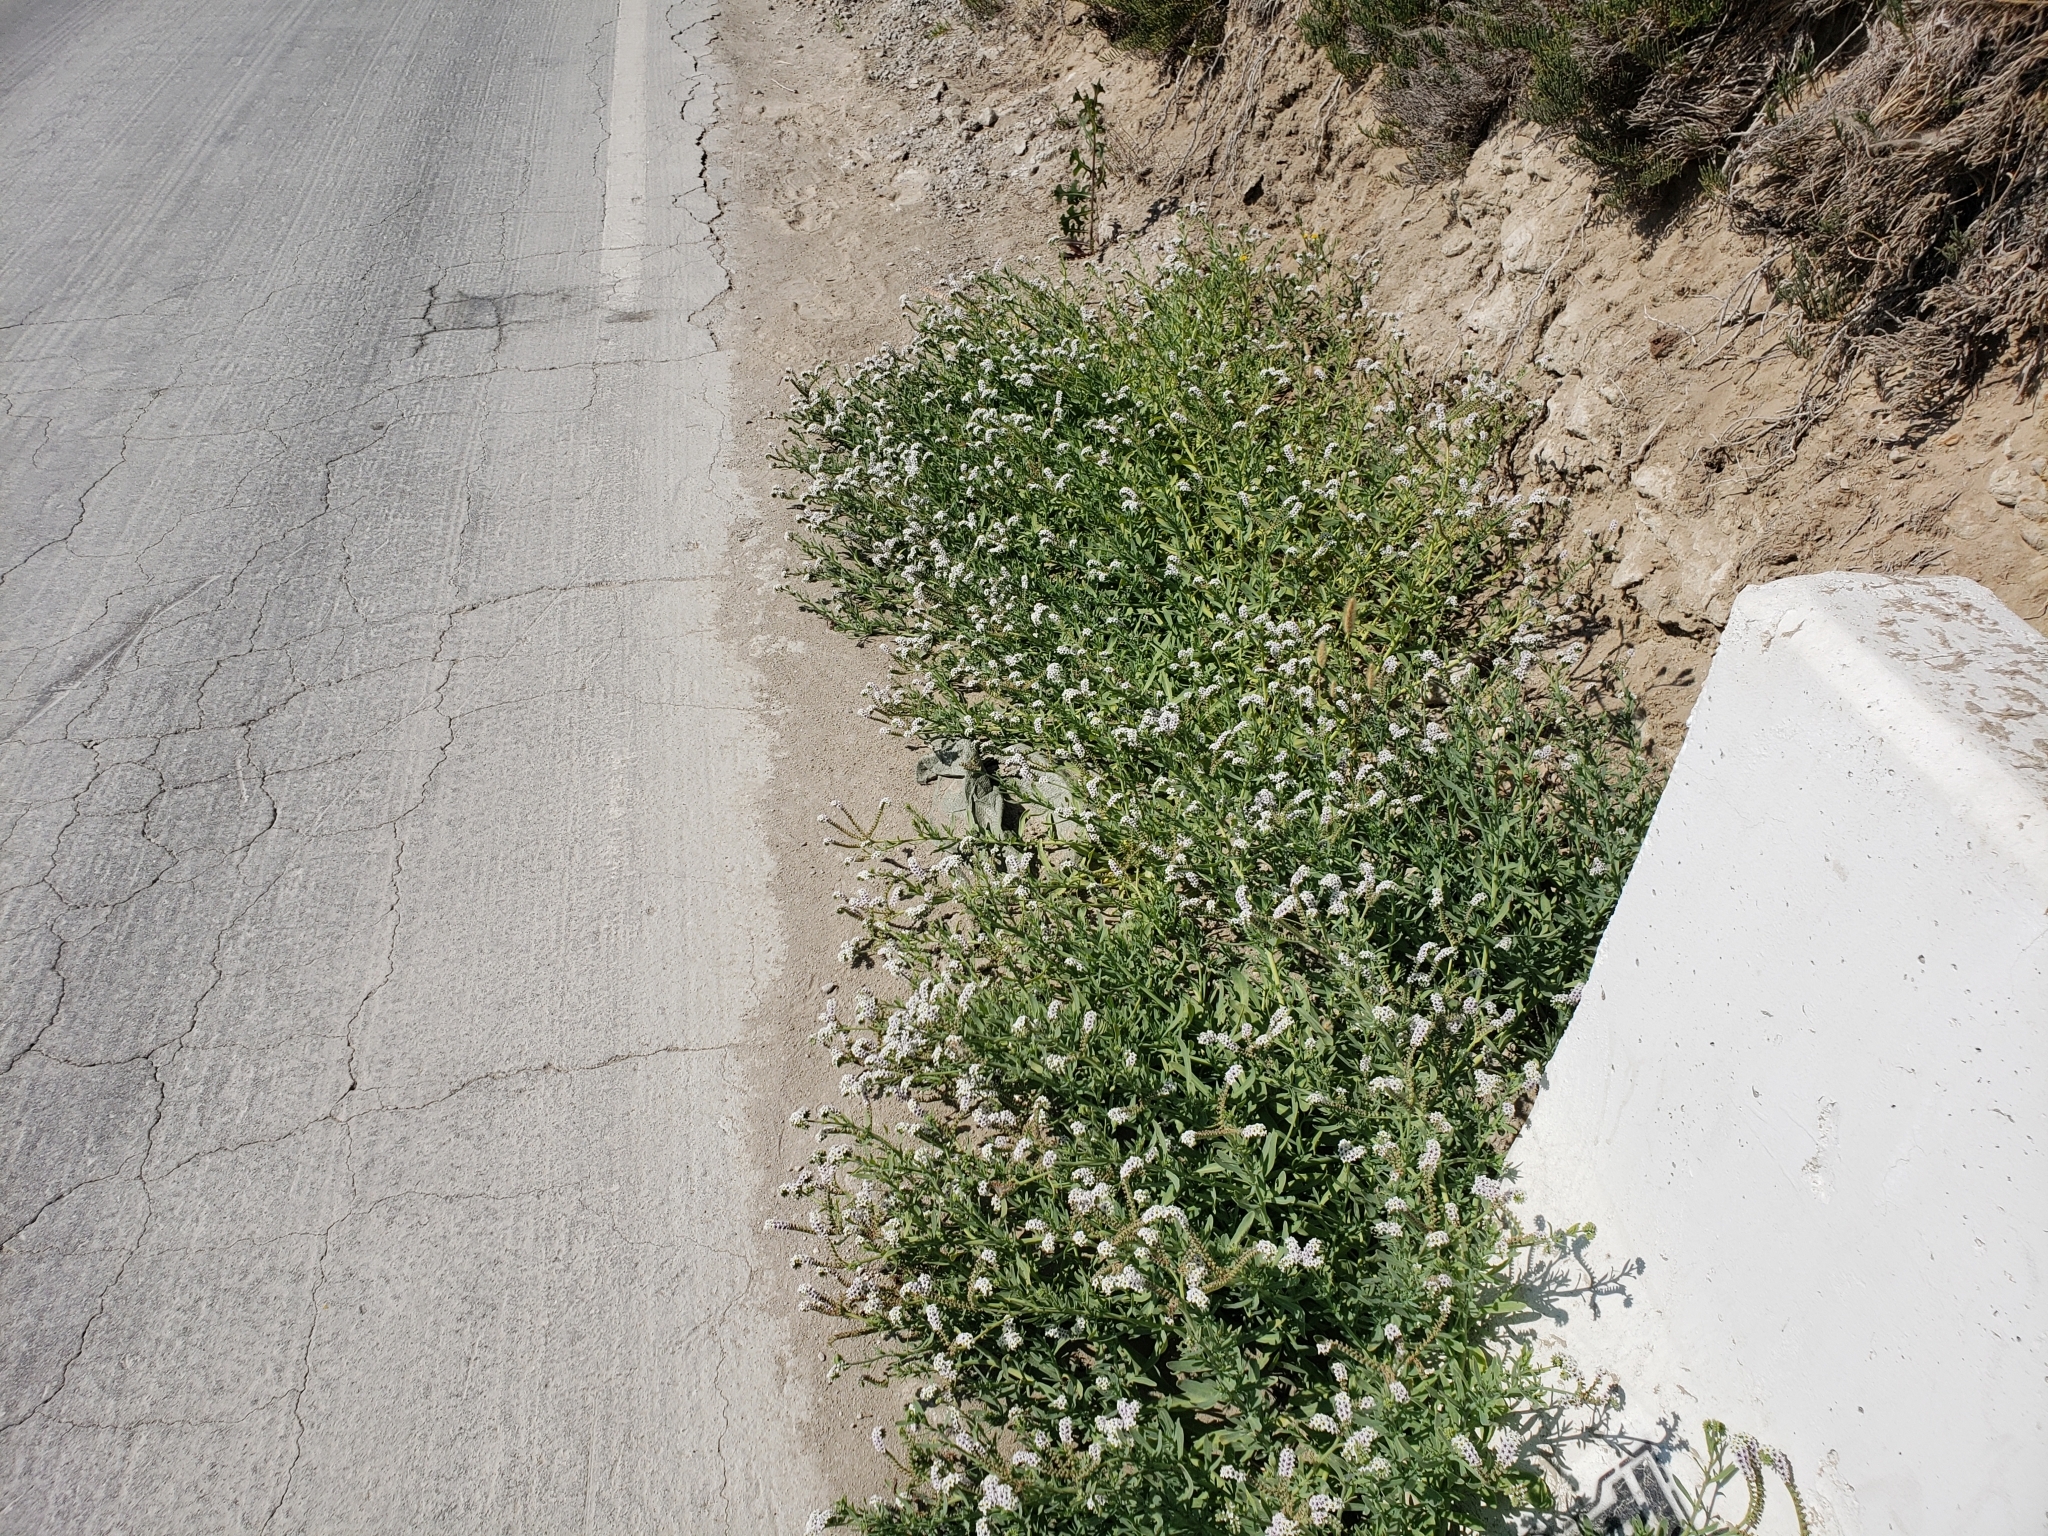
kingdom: Plantae
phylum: Tracheophyta
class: Magnoliopsida
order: Boraginales
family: Heliotropiaceae
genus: Heliotropium
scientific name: Heliotropium curassavicum
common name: Seaside heliotrope
